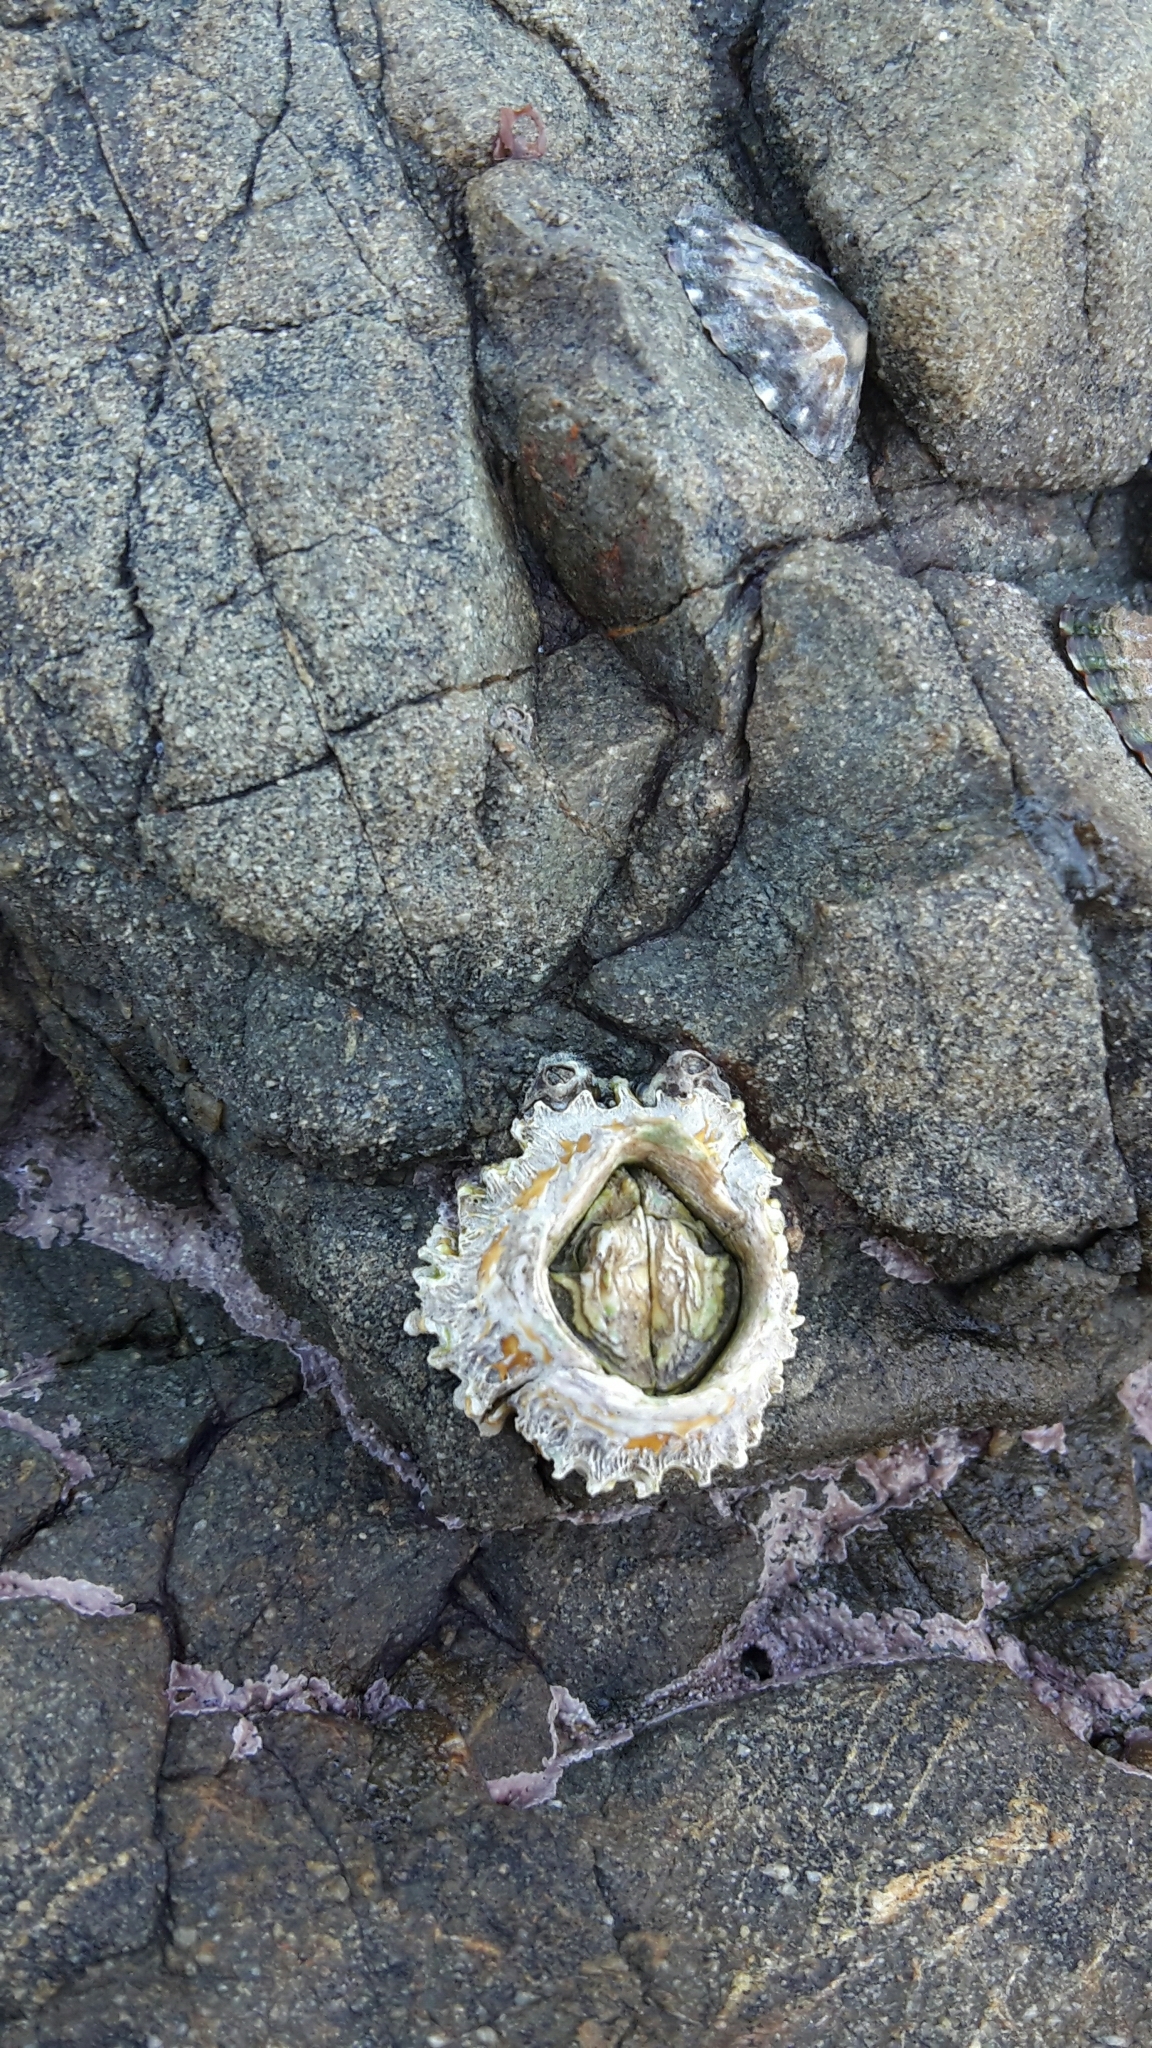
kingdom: Animalia
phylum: Arthropoda
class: Maxillopoda
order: Sessilia
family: Tetraclitidae
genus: Epopella
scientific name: Epopella plicata
